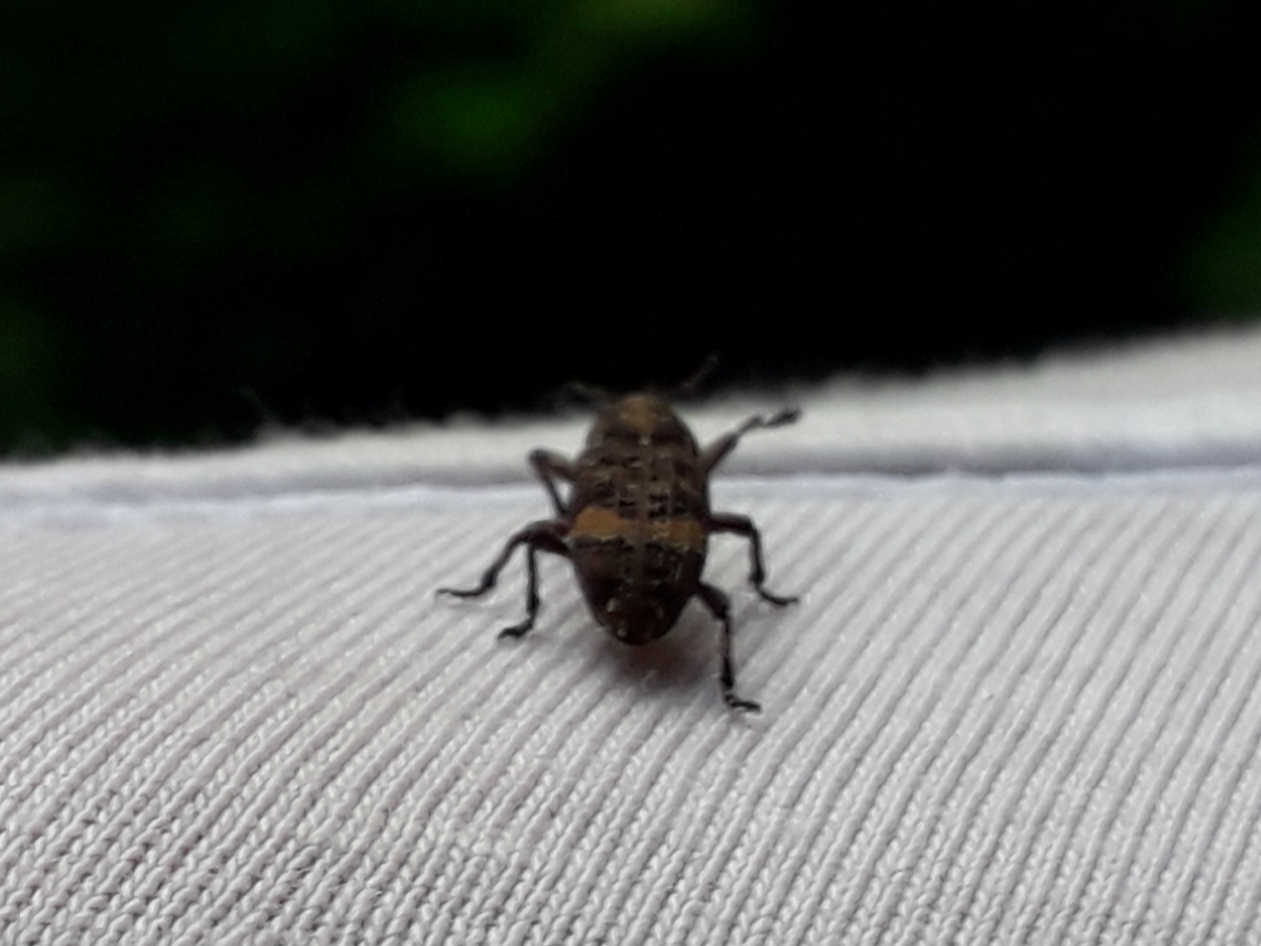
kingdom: Animalia
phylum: Arthropoda
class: Insecta
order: Coleoptera
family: Curculionidae
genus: Pissodes
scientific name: Pissodes piceae
